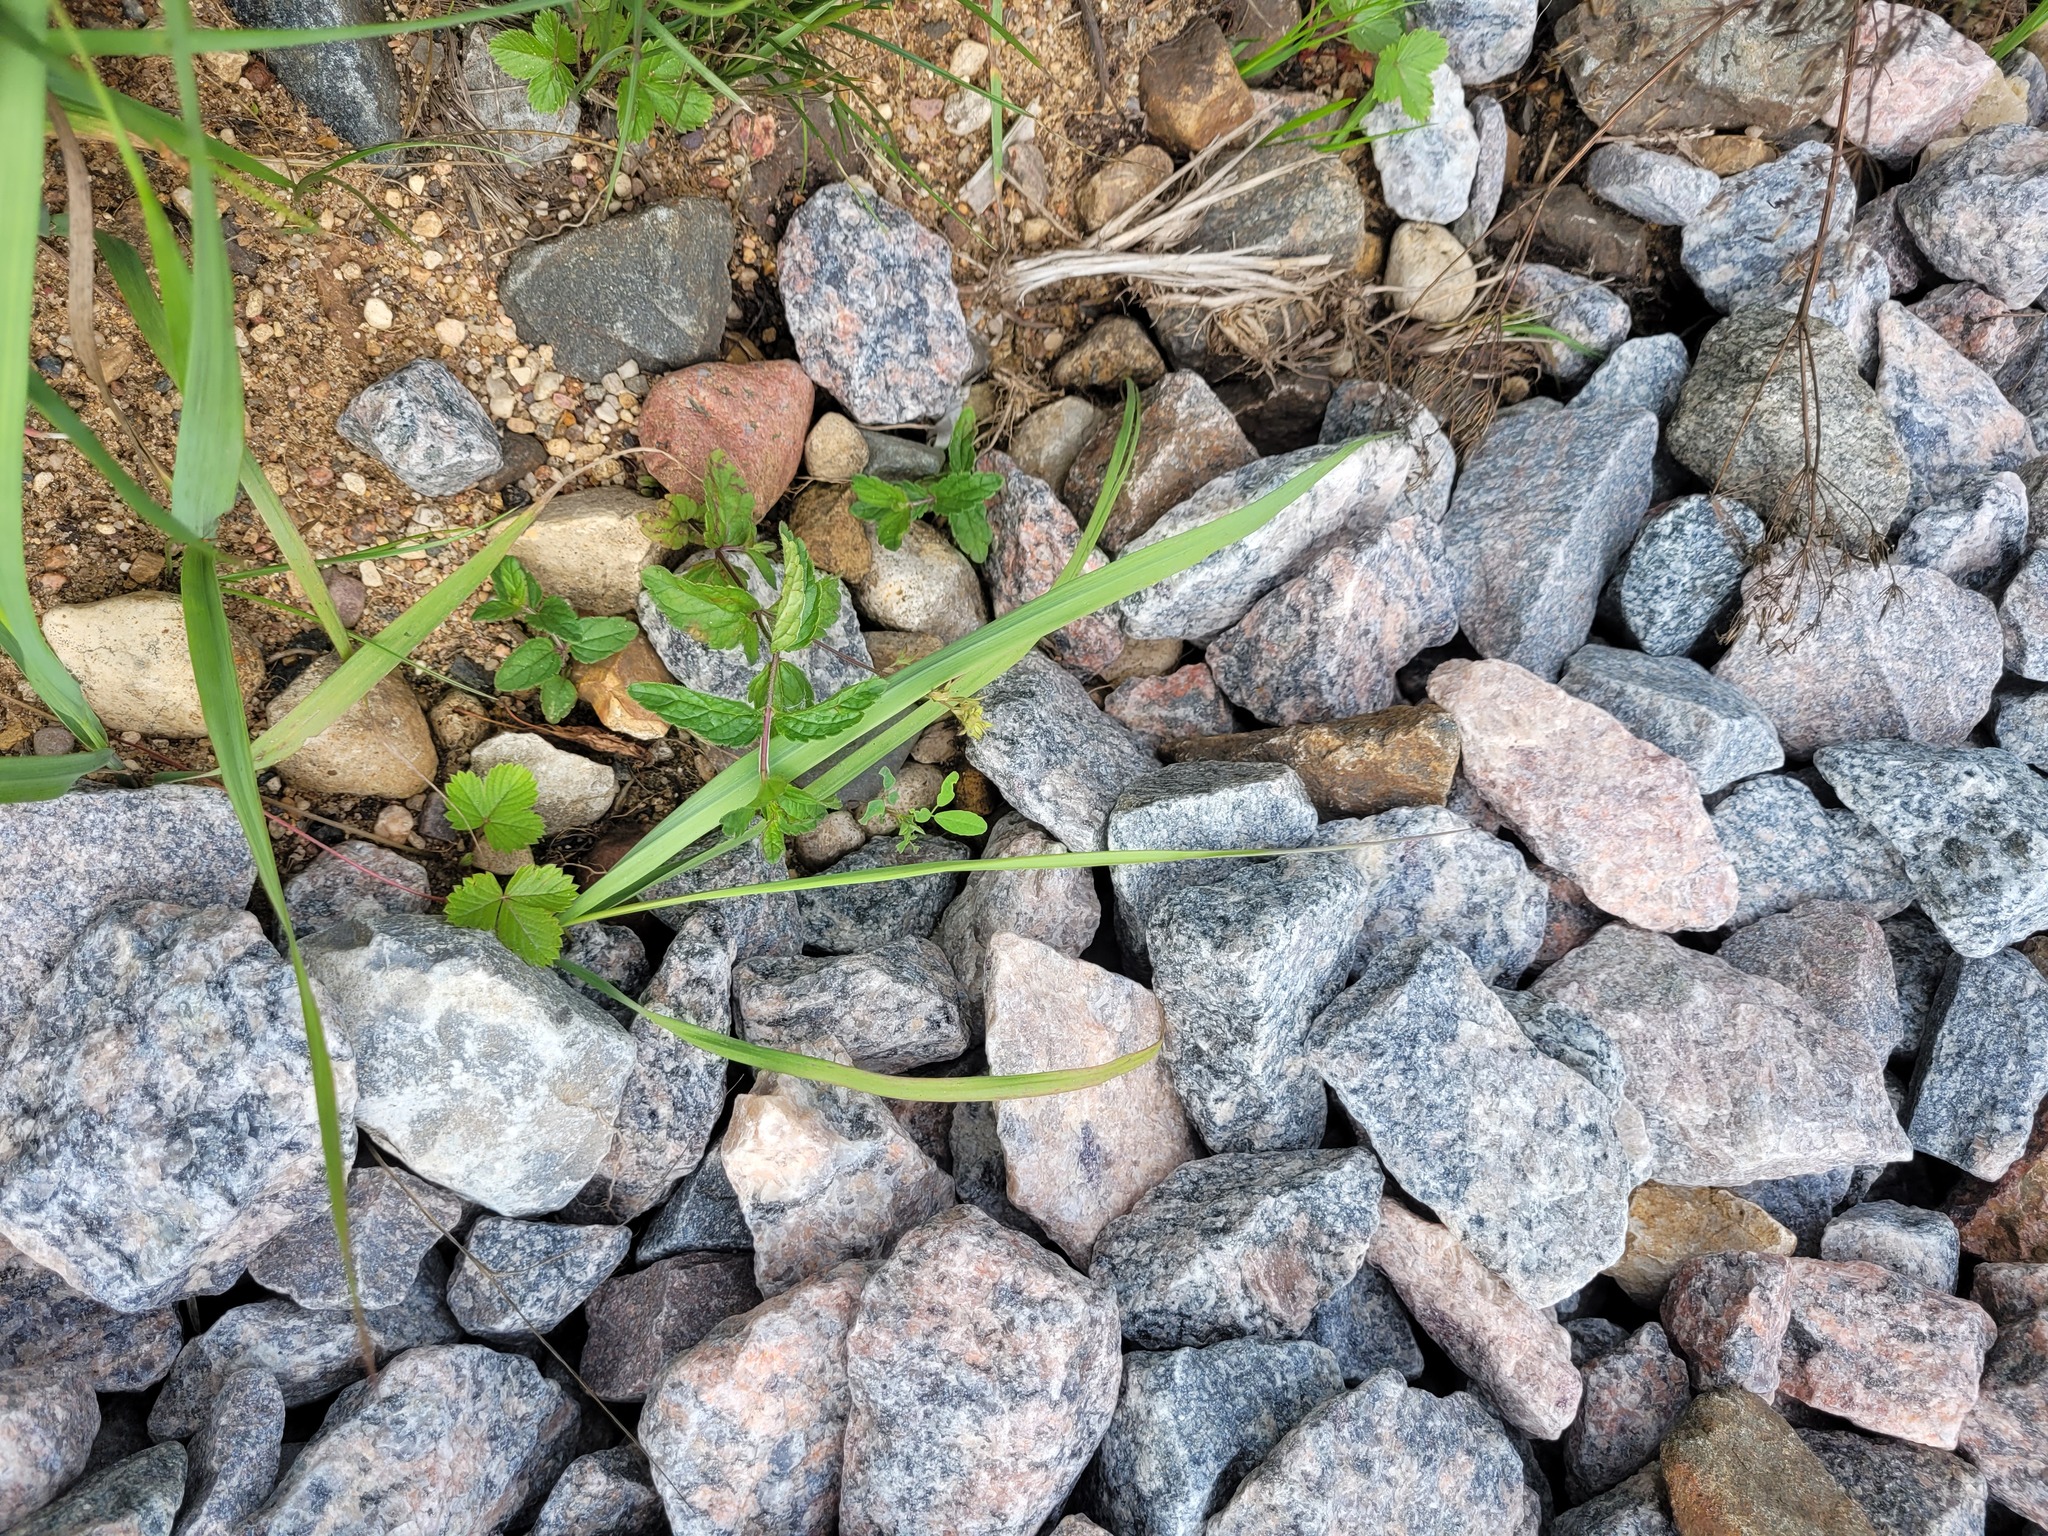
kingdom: Plantae
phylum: Tracheophyta
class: Magnoliopsida
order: Lamiales
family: Plantaginaceae
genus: Veronica
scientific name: Veronica chamaedrys
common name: Germander speedwell
